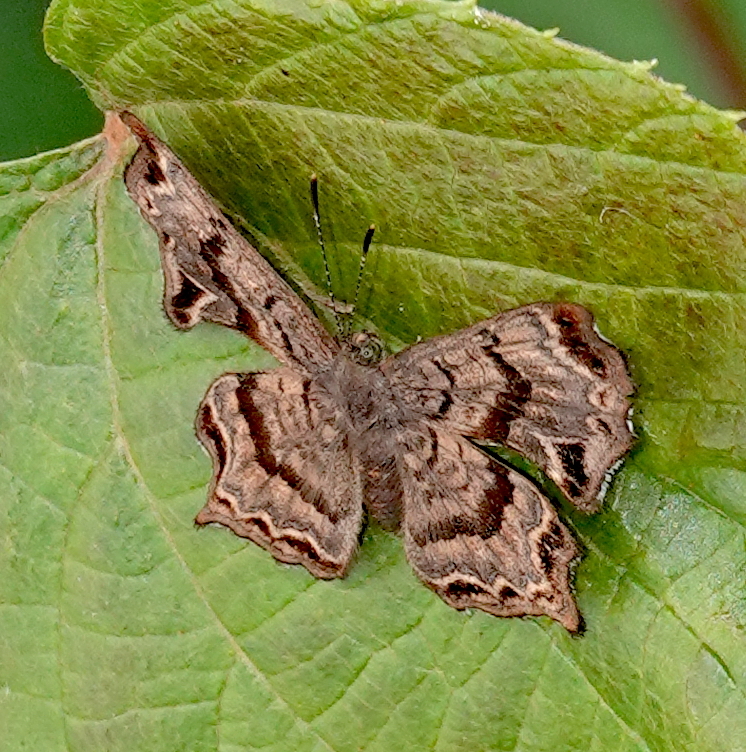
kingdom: Animalia
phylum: Arthropoda
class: Insecta
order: Lepidoptera
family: Riodinidae
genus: Amphiselenis
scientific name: Amphiselenis chama
